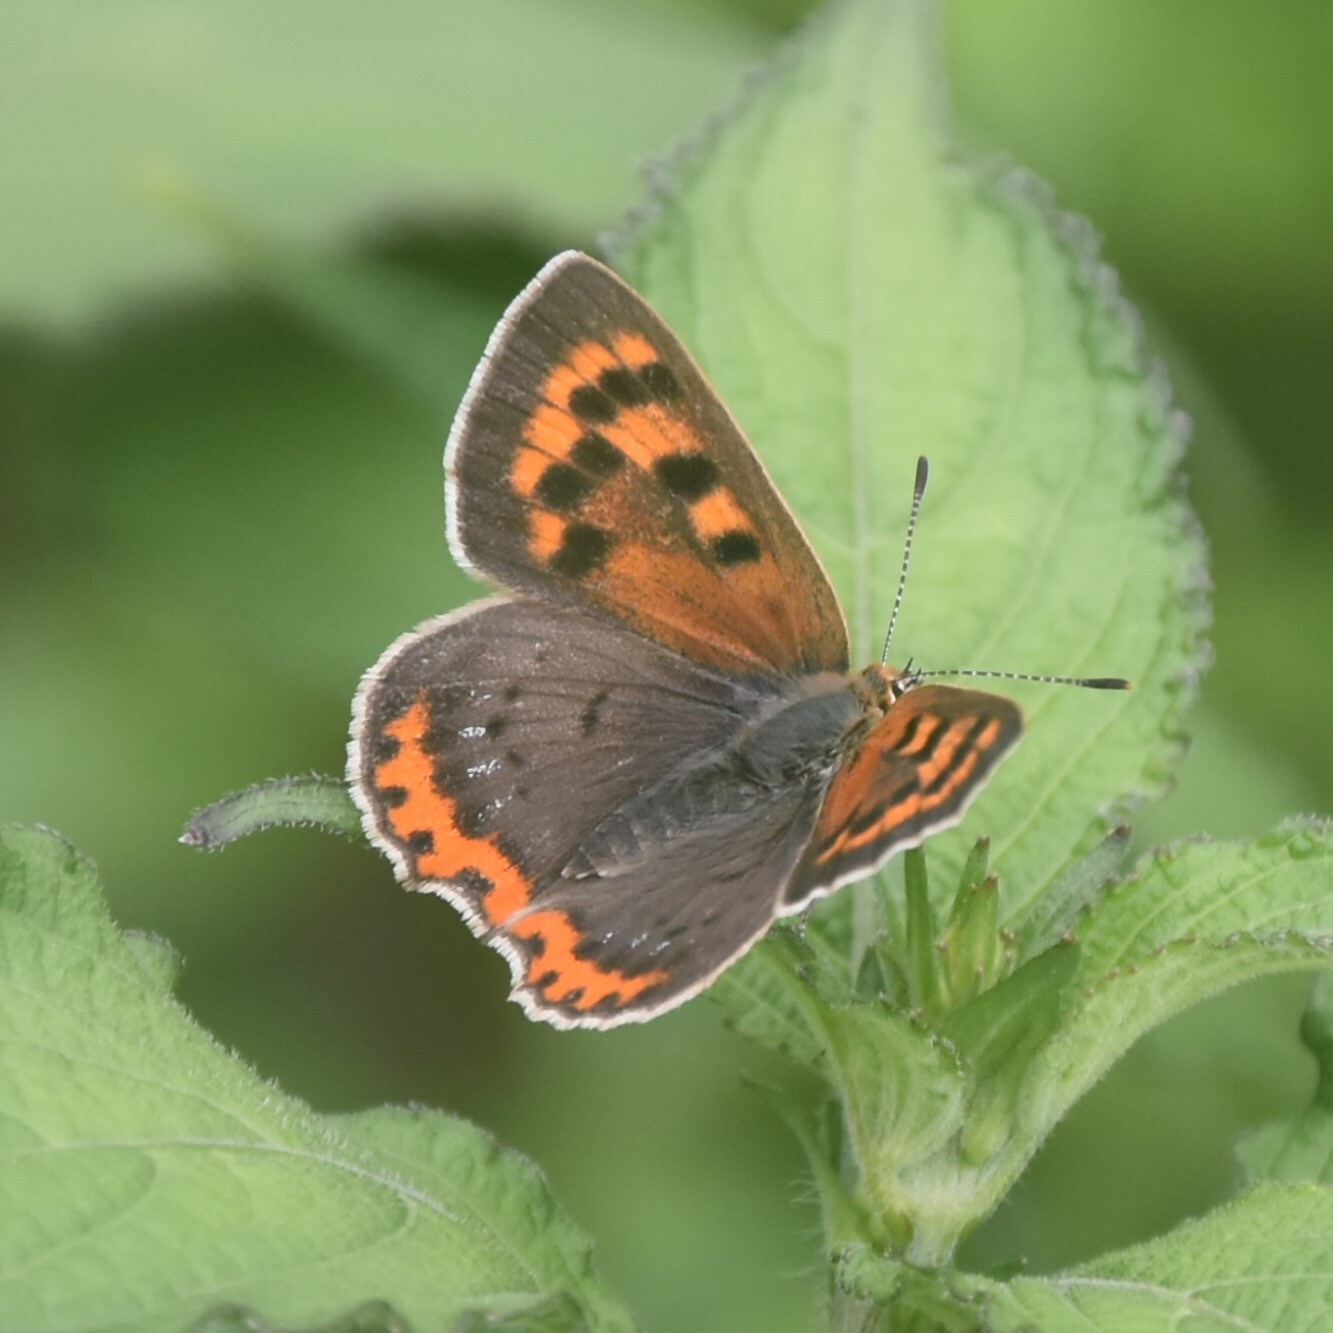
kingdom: Animalia
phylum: Arthropoda
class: Insecta
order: Lepidoptera
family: Lycaenidae
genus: Lycaena
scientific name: Lycaena phlaeas
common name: Small copper
